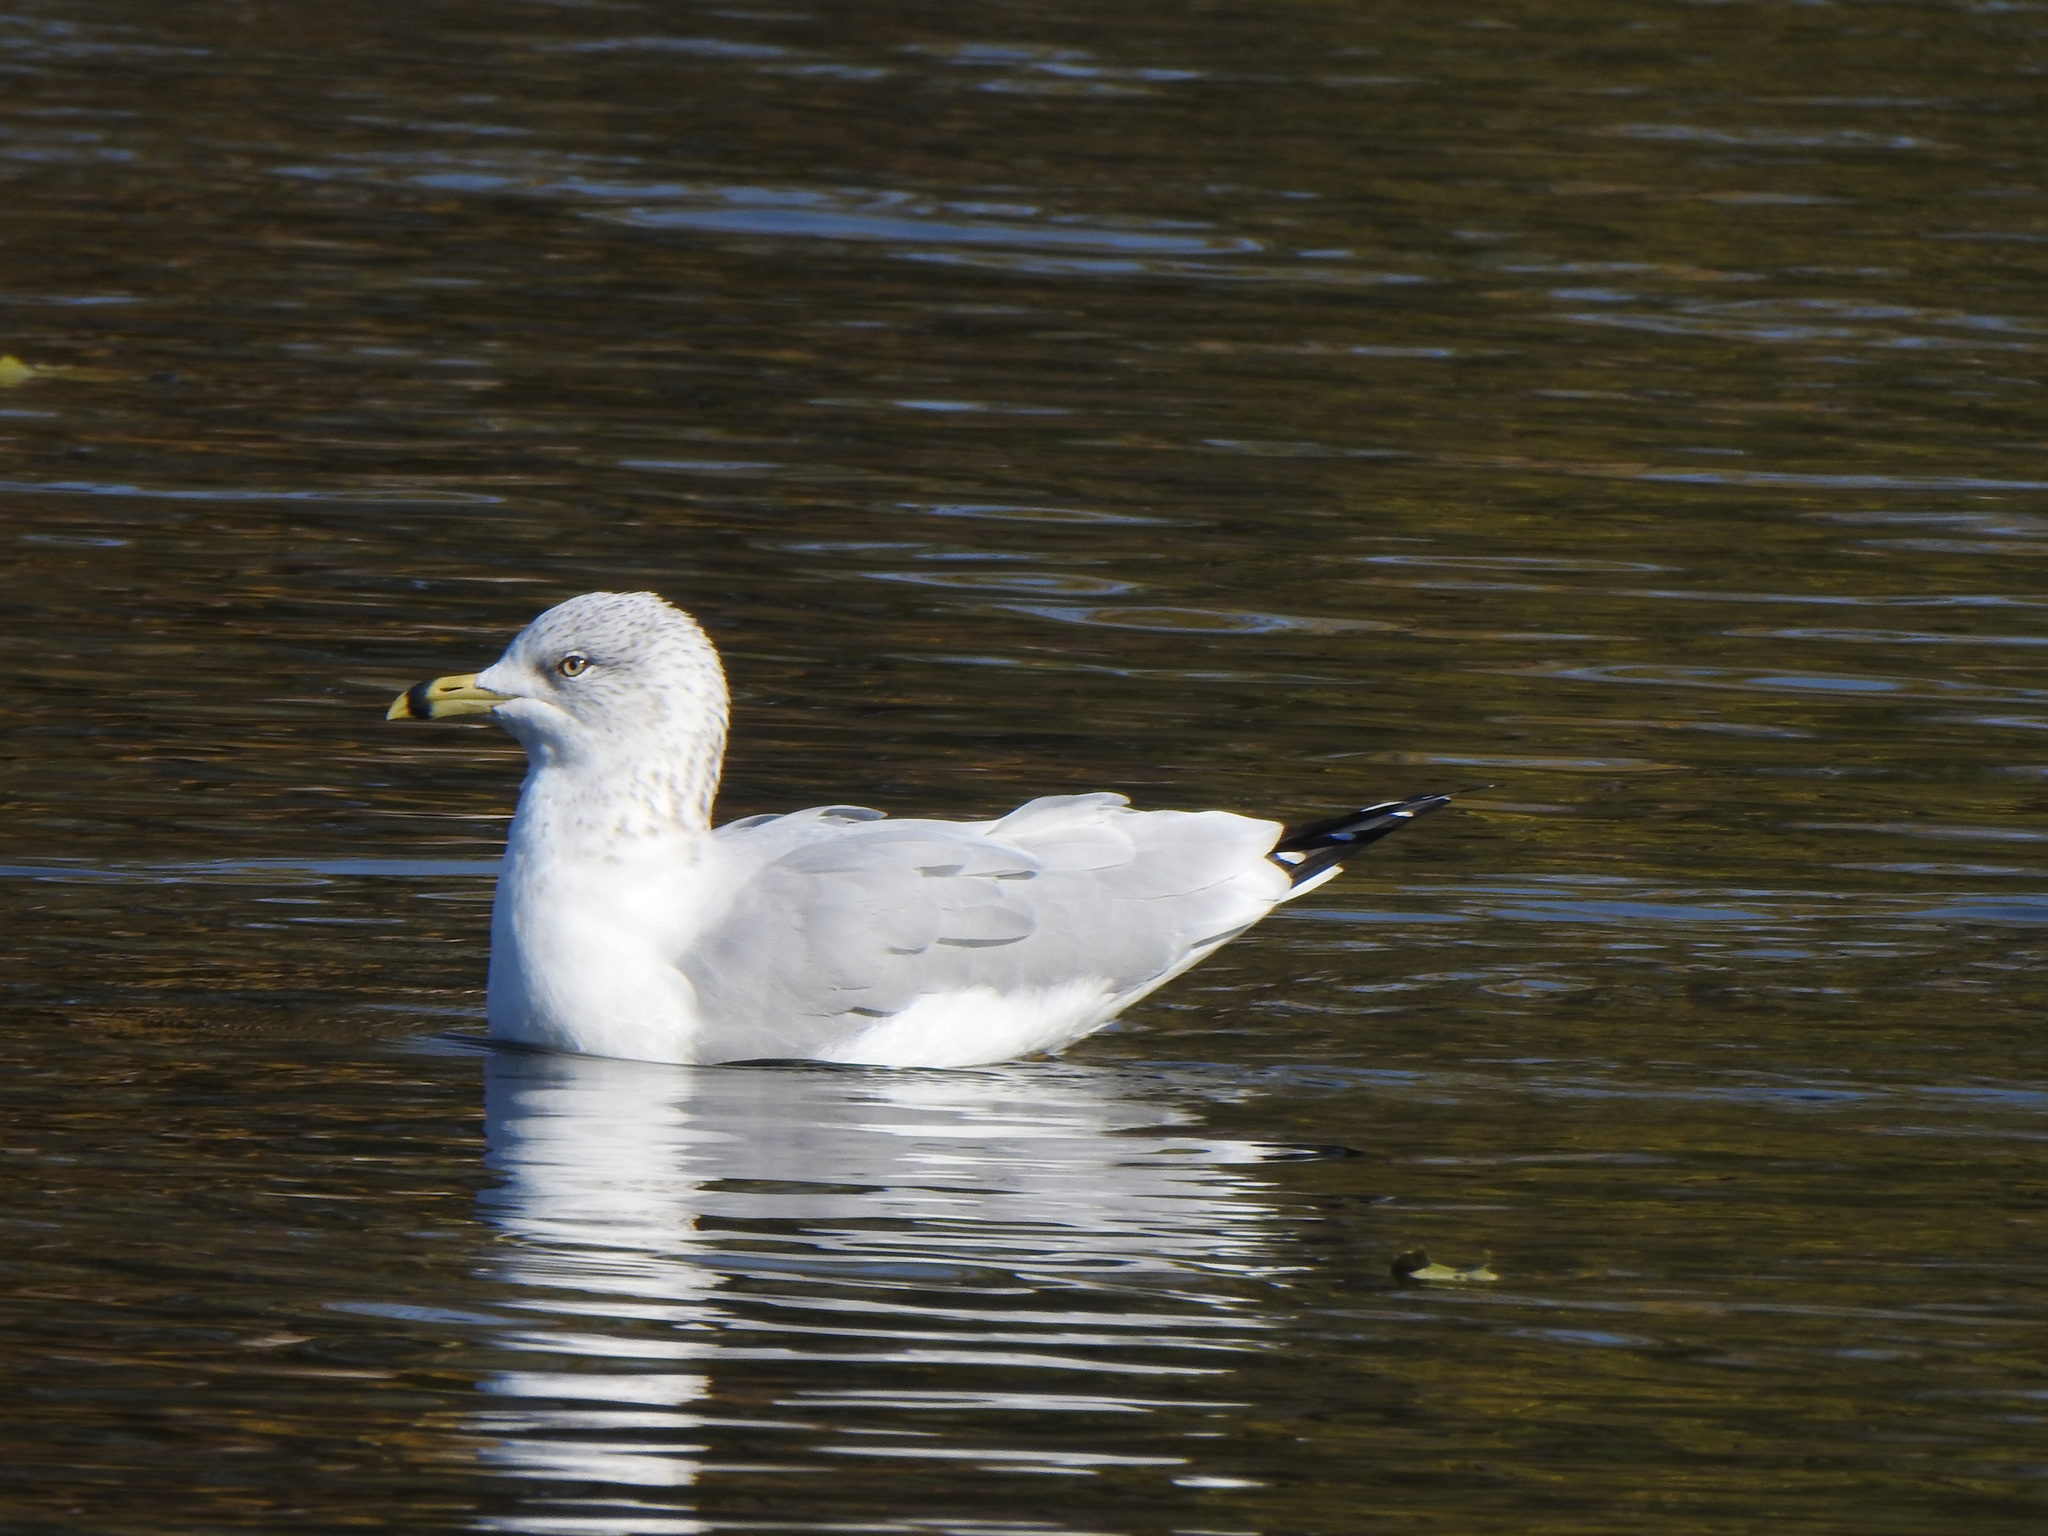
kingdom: Animalia
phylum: Chordata
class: Aves
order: Charadriiformes
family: Laridae
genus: Larus
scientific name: Larus delawarensis
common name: Ring-billed gull
